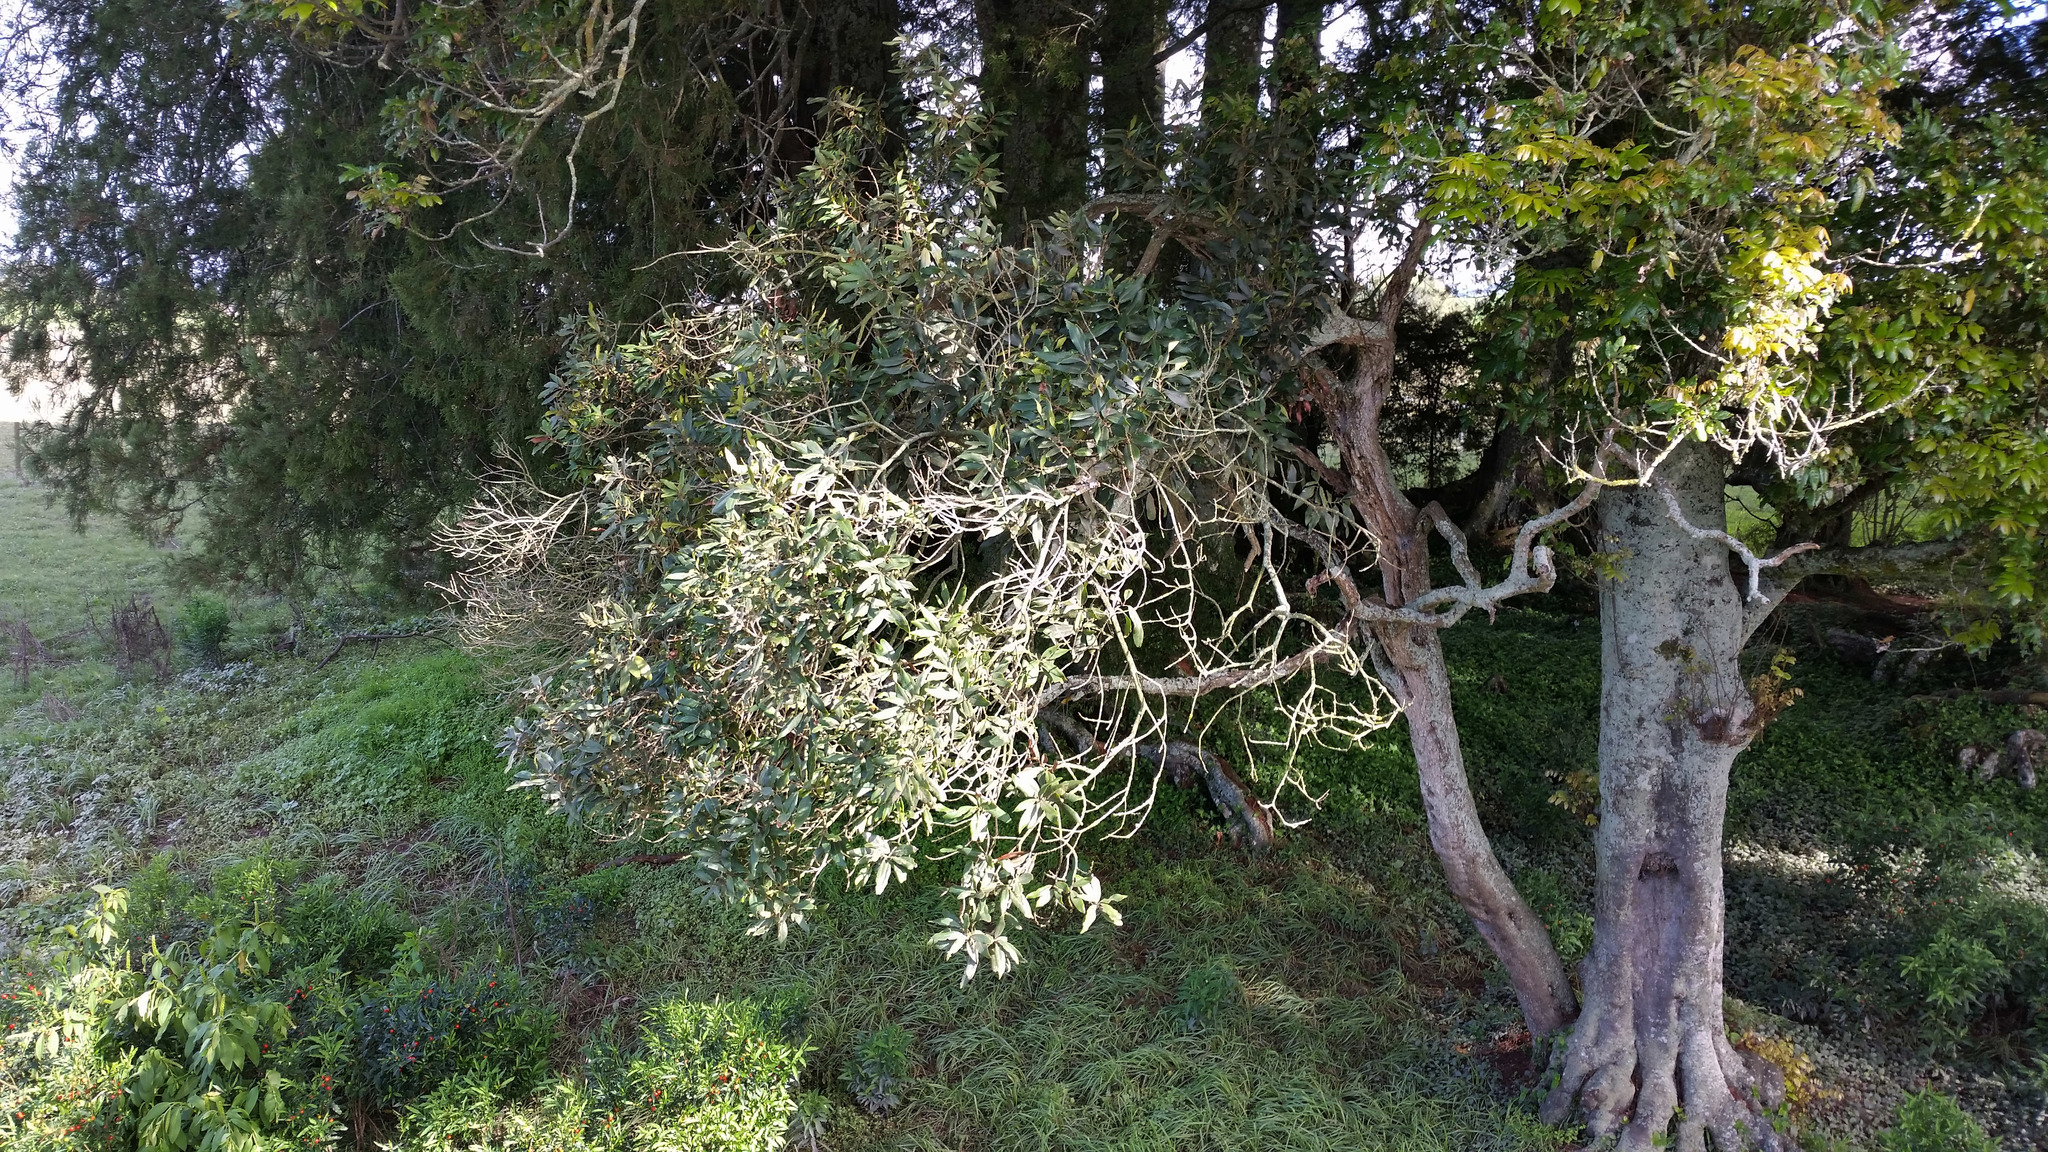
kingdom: Plantae
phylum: Tracheophyta
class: Magnoliopsida
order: Lamiales
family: Oleaceae
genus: Nestegis
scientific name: Nestegis cunninghamii
